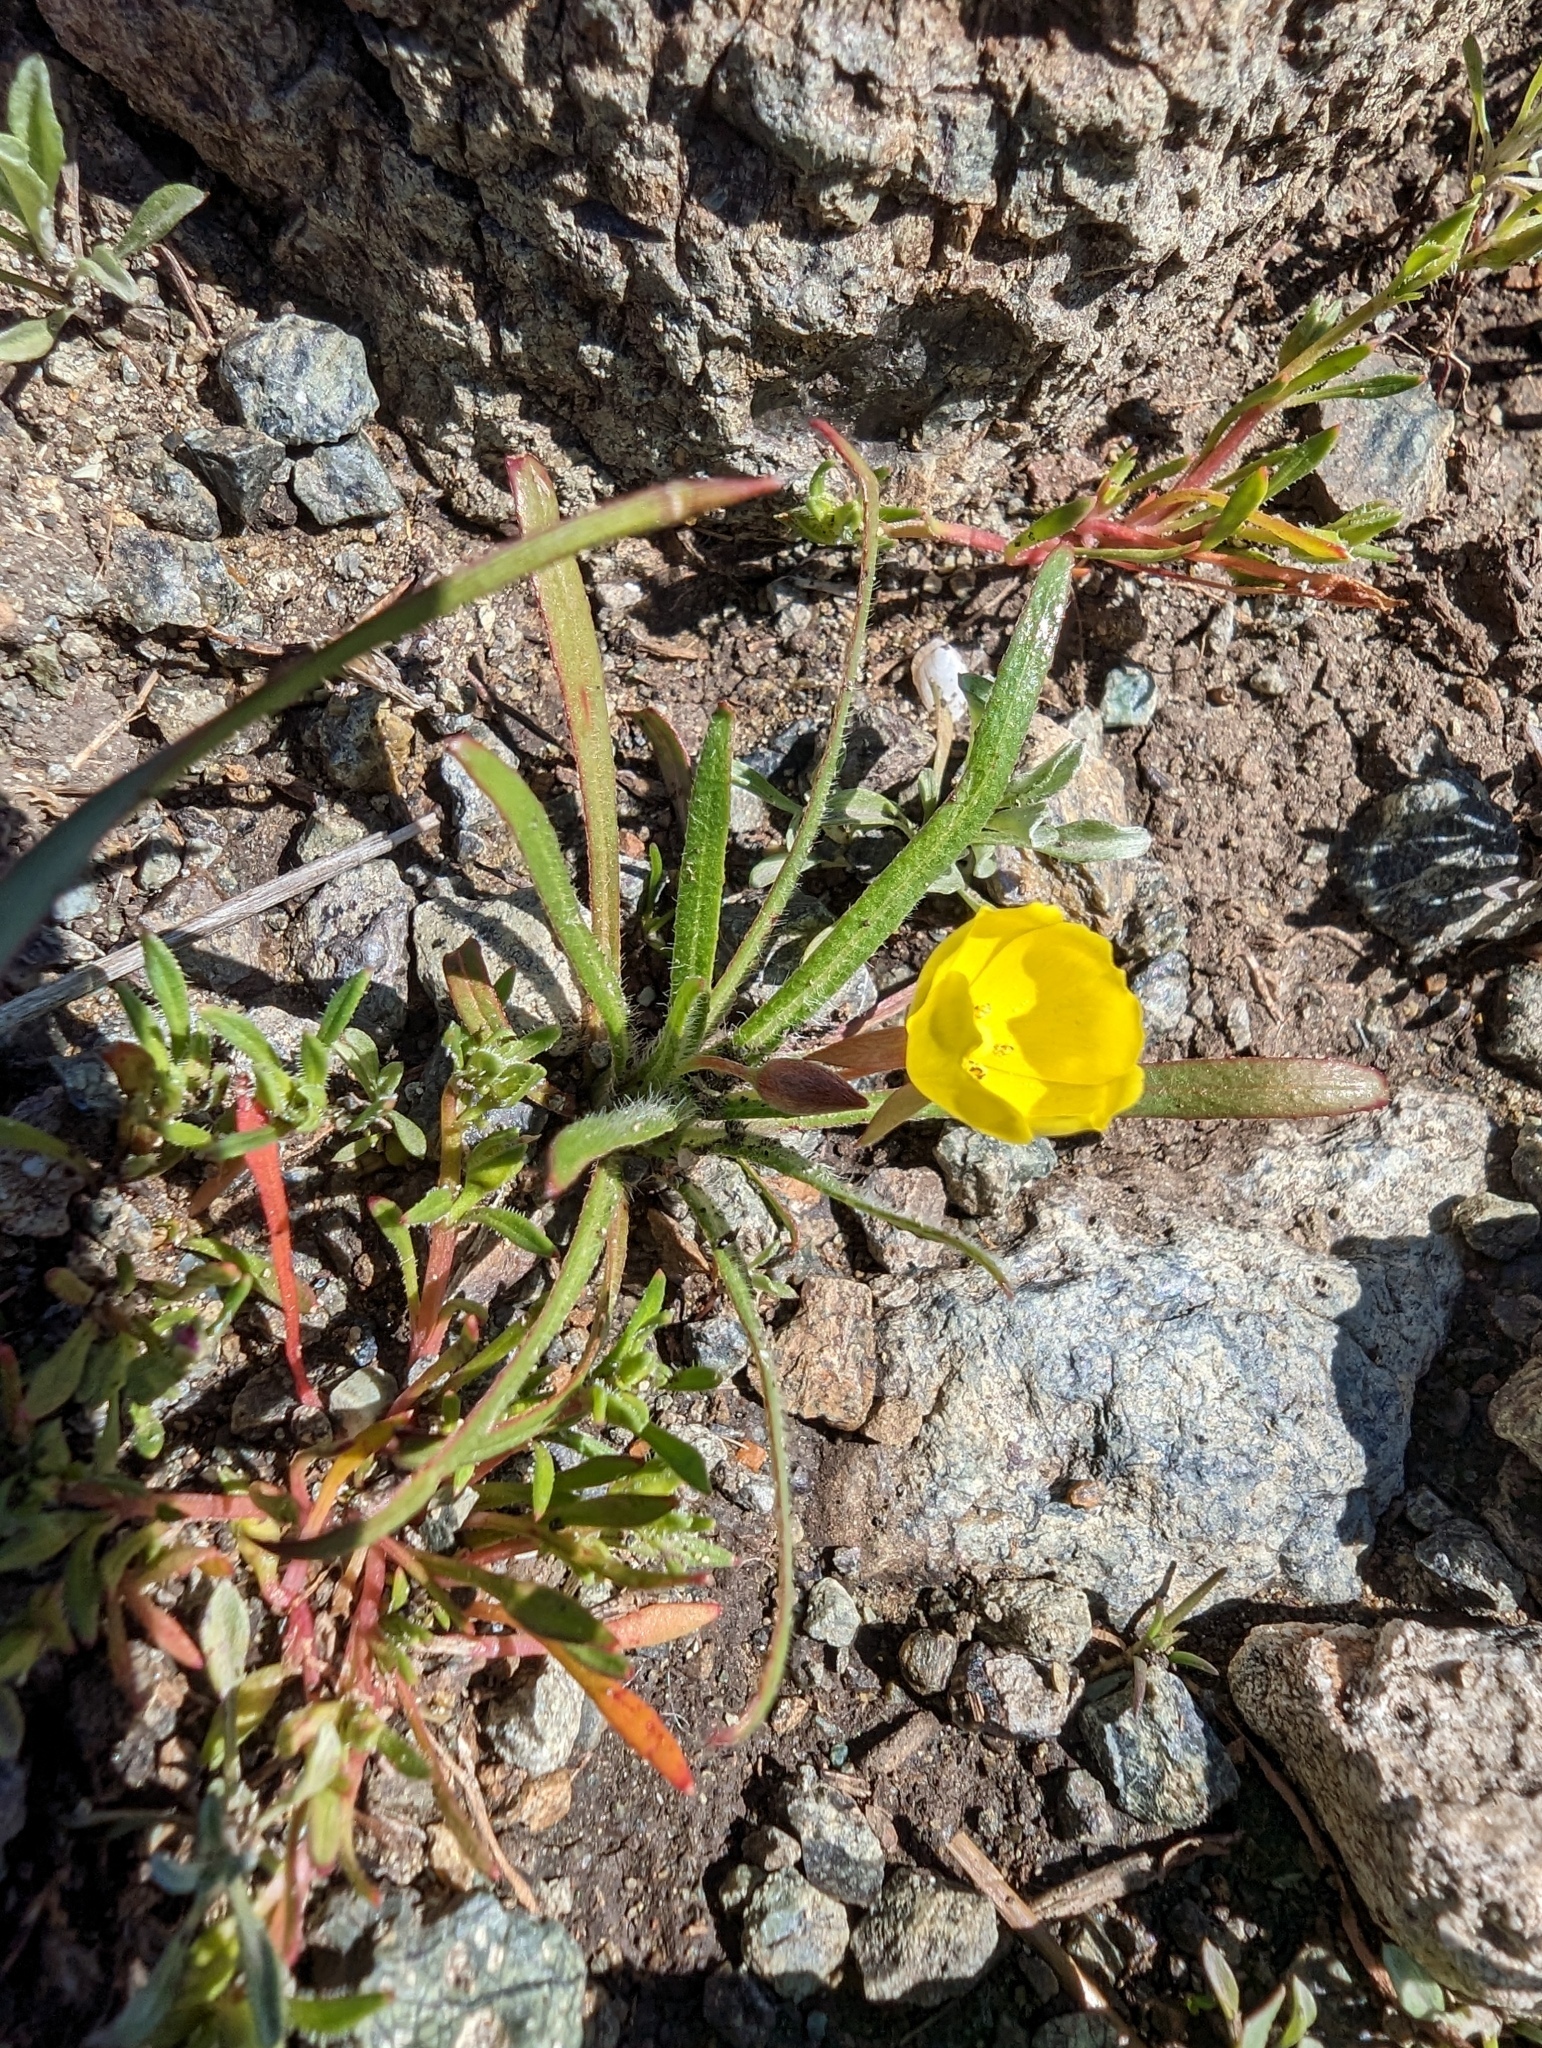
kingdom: Plantae
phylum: Tracheophyta
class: Magnoliopsida
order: Myrtales
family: Onagraceae
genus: Tetrapteron
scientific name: Tetrapteron graciliflorum
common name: Hill suncup
